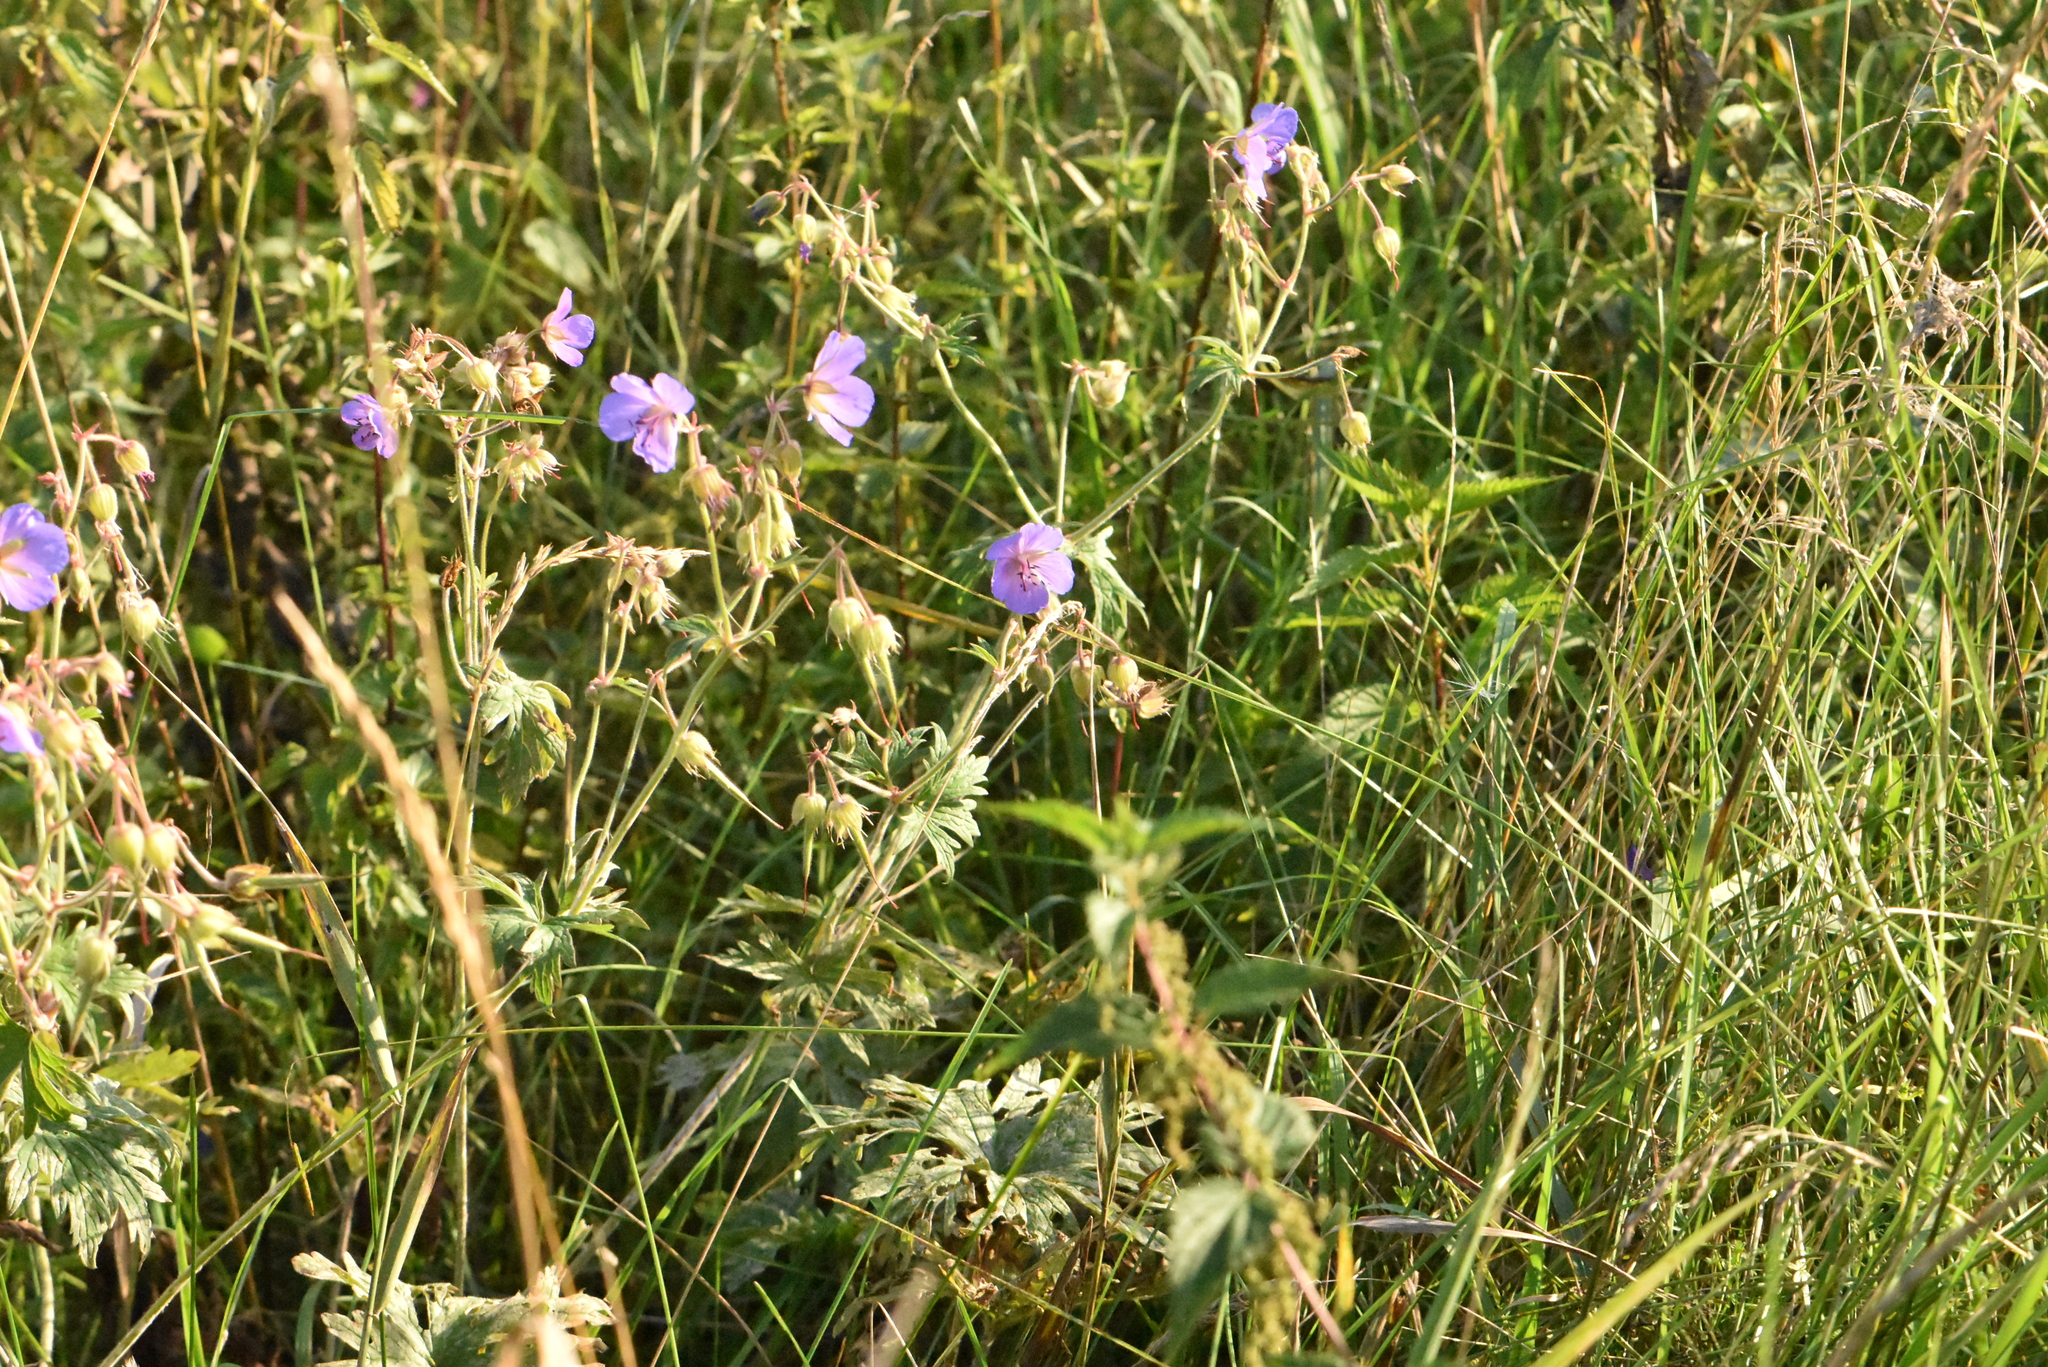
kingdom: Plantae
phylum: Tracheophyta
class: Magnoliopsida
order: Geraniales
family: Geraniaceae
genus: Geranium
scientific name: Geranium pratense
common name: Meadow crane's-bill
